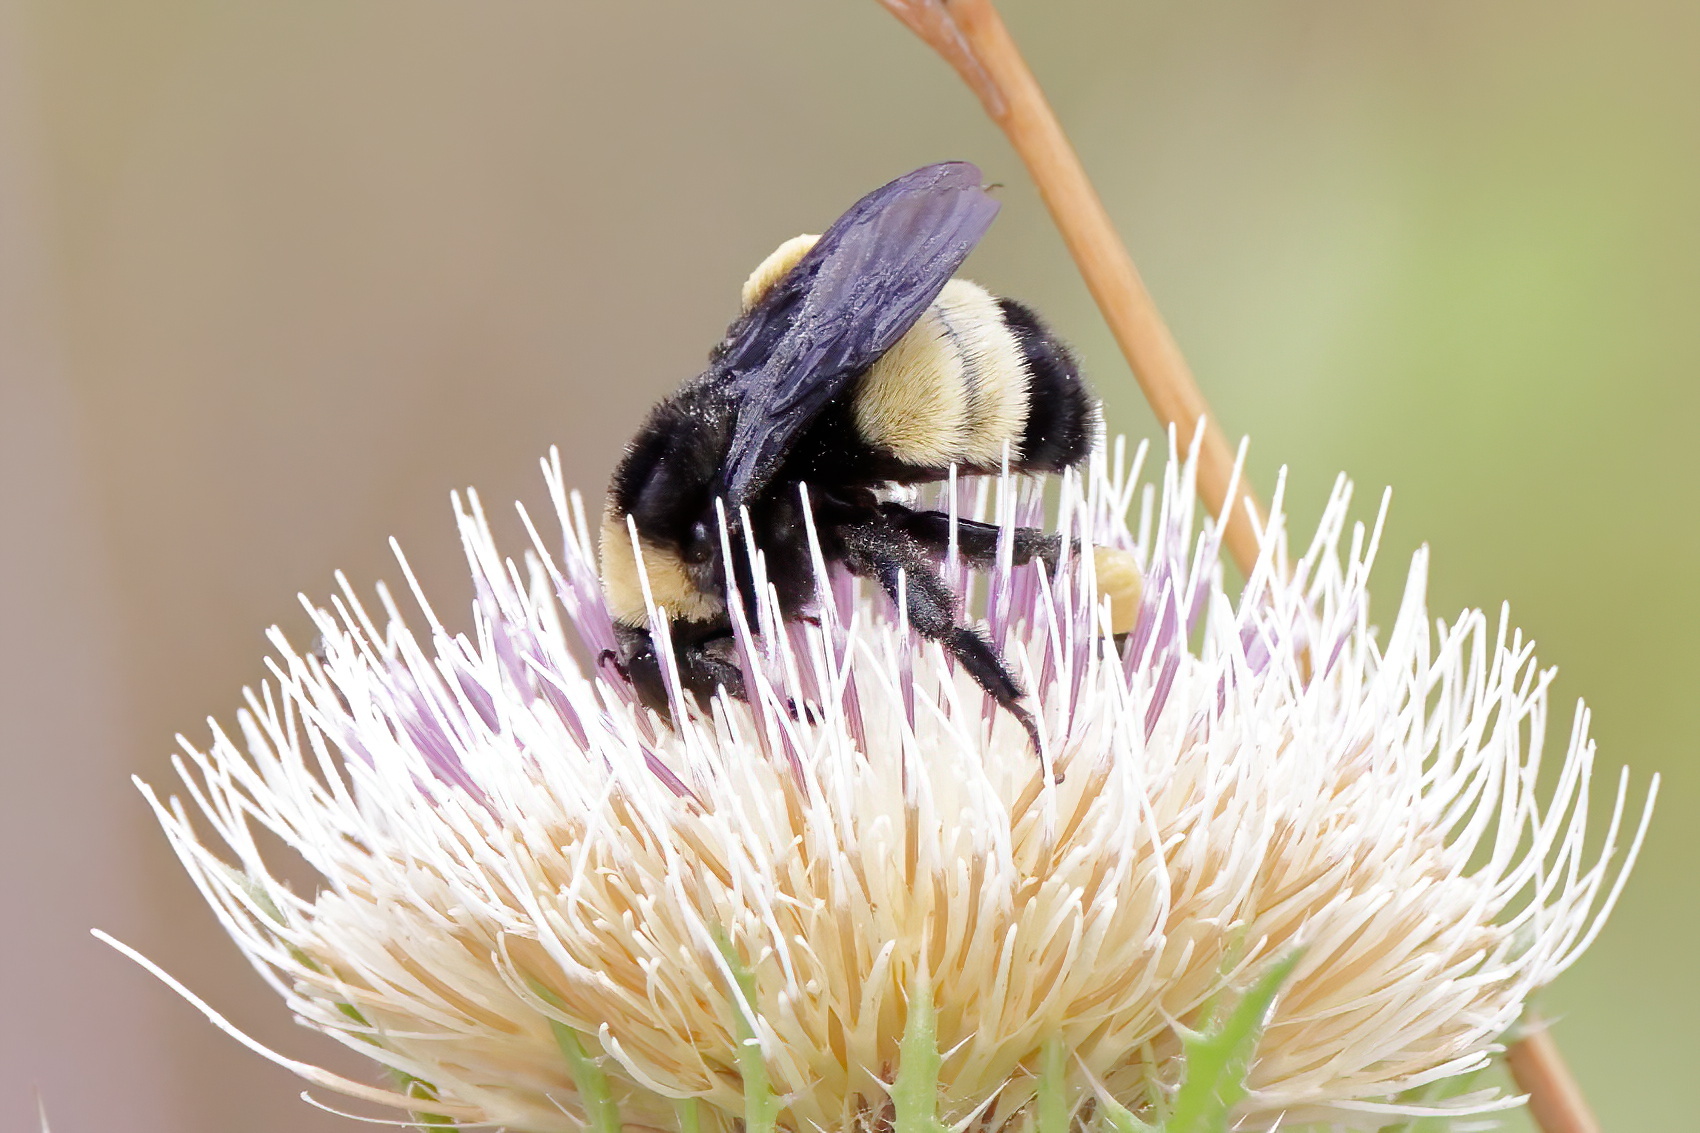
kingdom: Animalia
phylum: Arthropoda
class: Insecta
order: Hymenoptera
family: Apidae
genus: Bombus
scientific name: Bombus pensylvanicus
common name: Bumble bee
